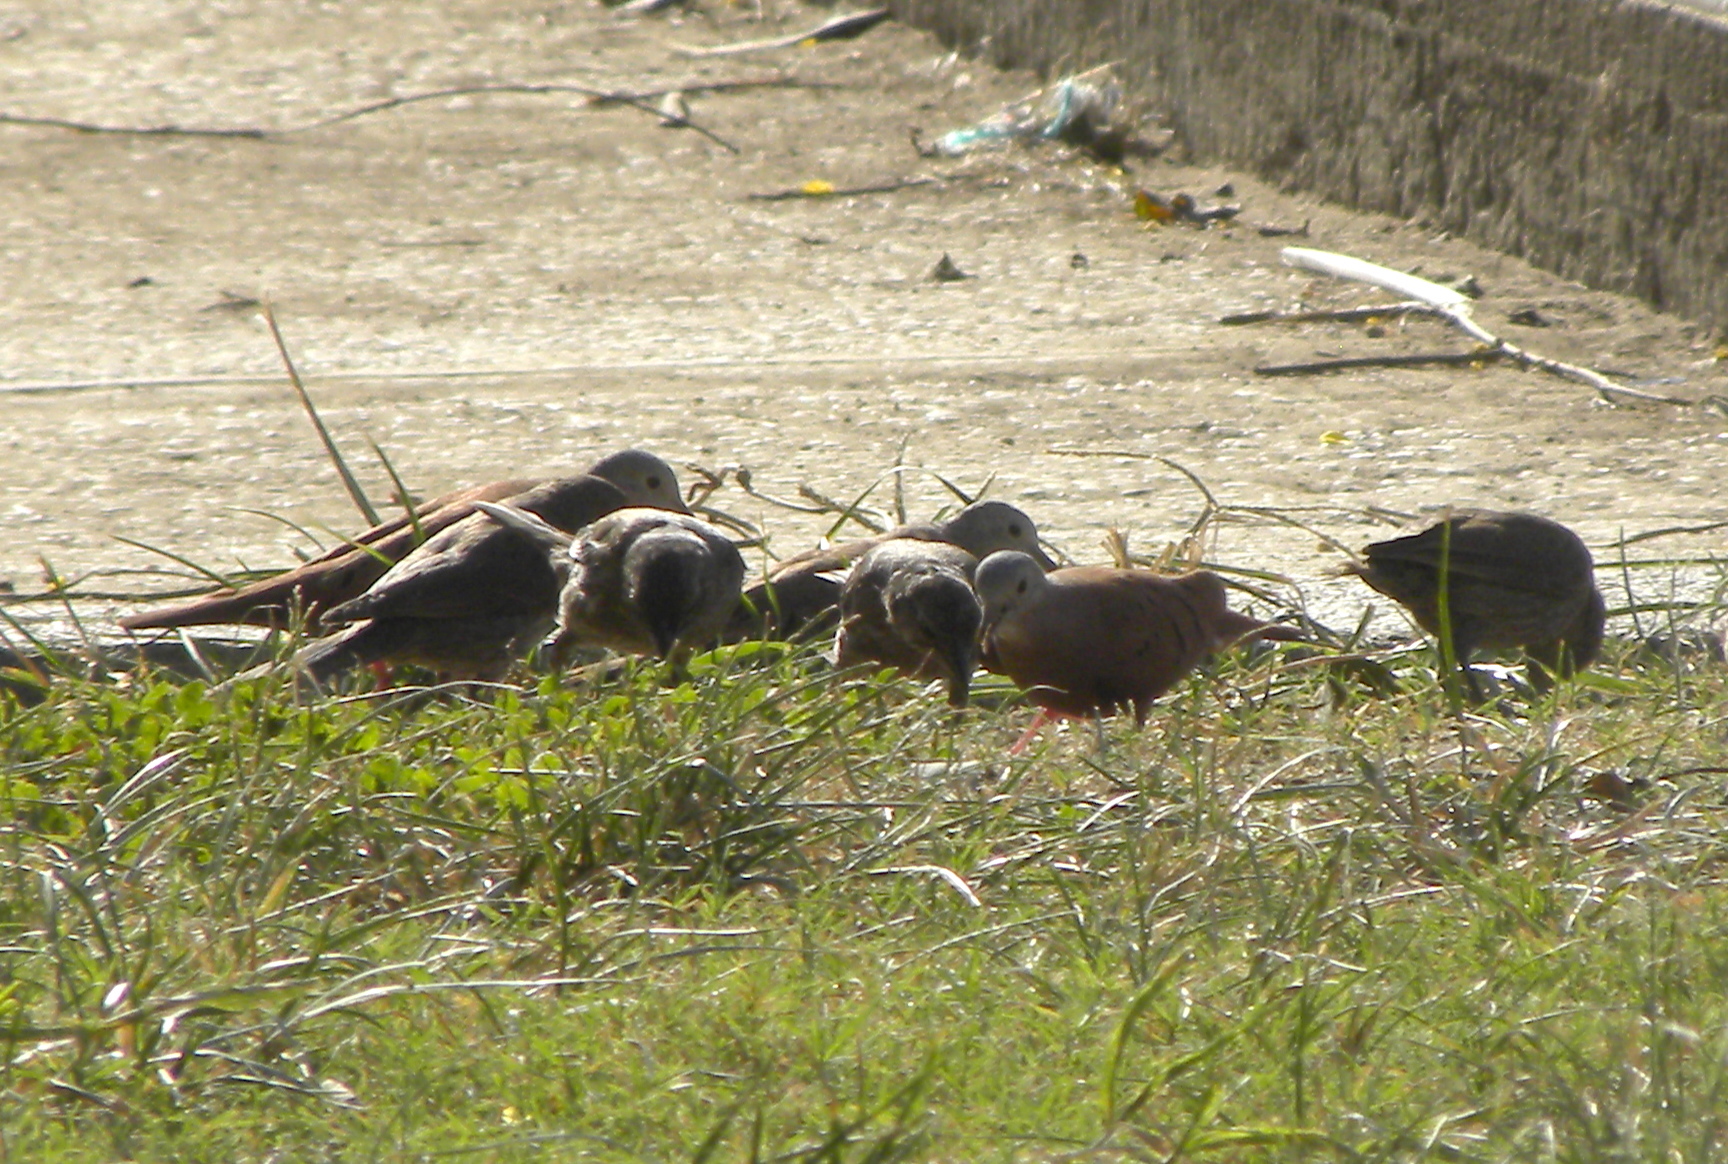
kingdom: Animalia
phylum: Chordata
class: Aves
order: Columbiformes
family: Columbidae
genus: Columbina
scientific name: Columbina talpacoti
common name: Ruddy ground dove
